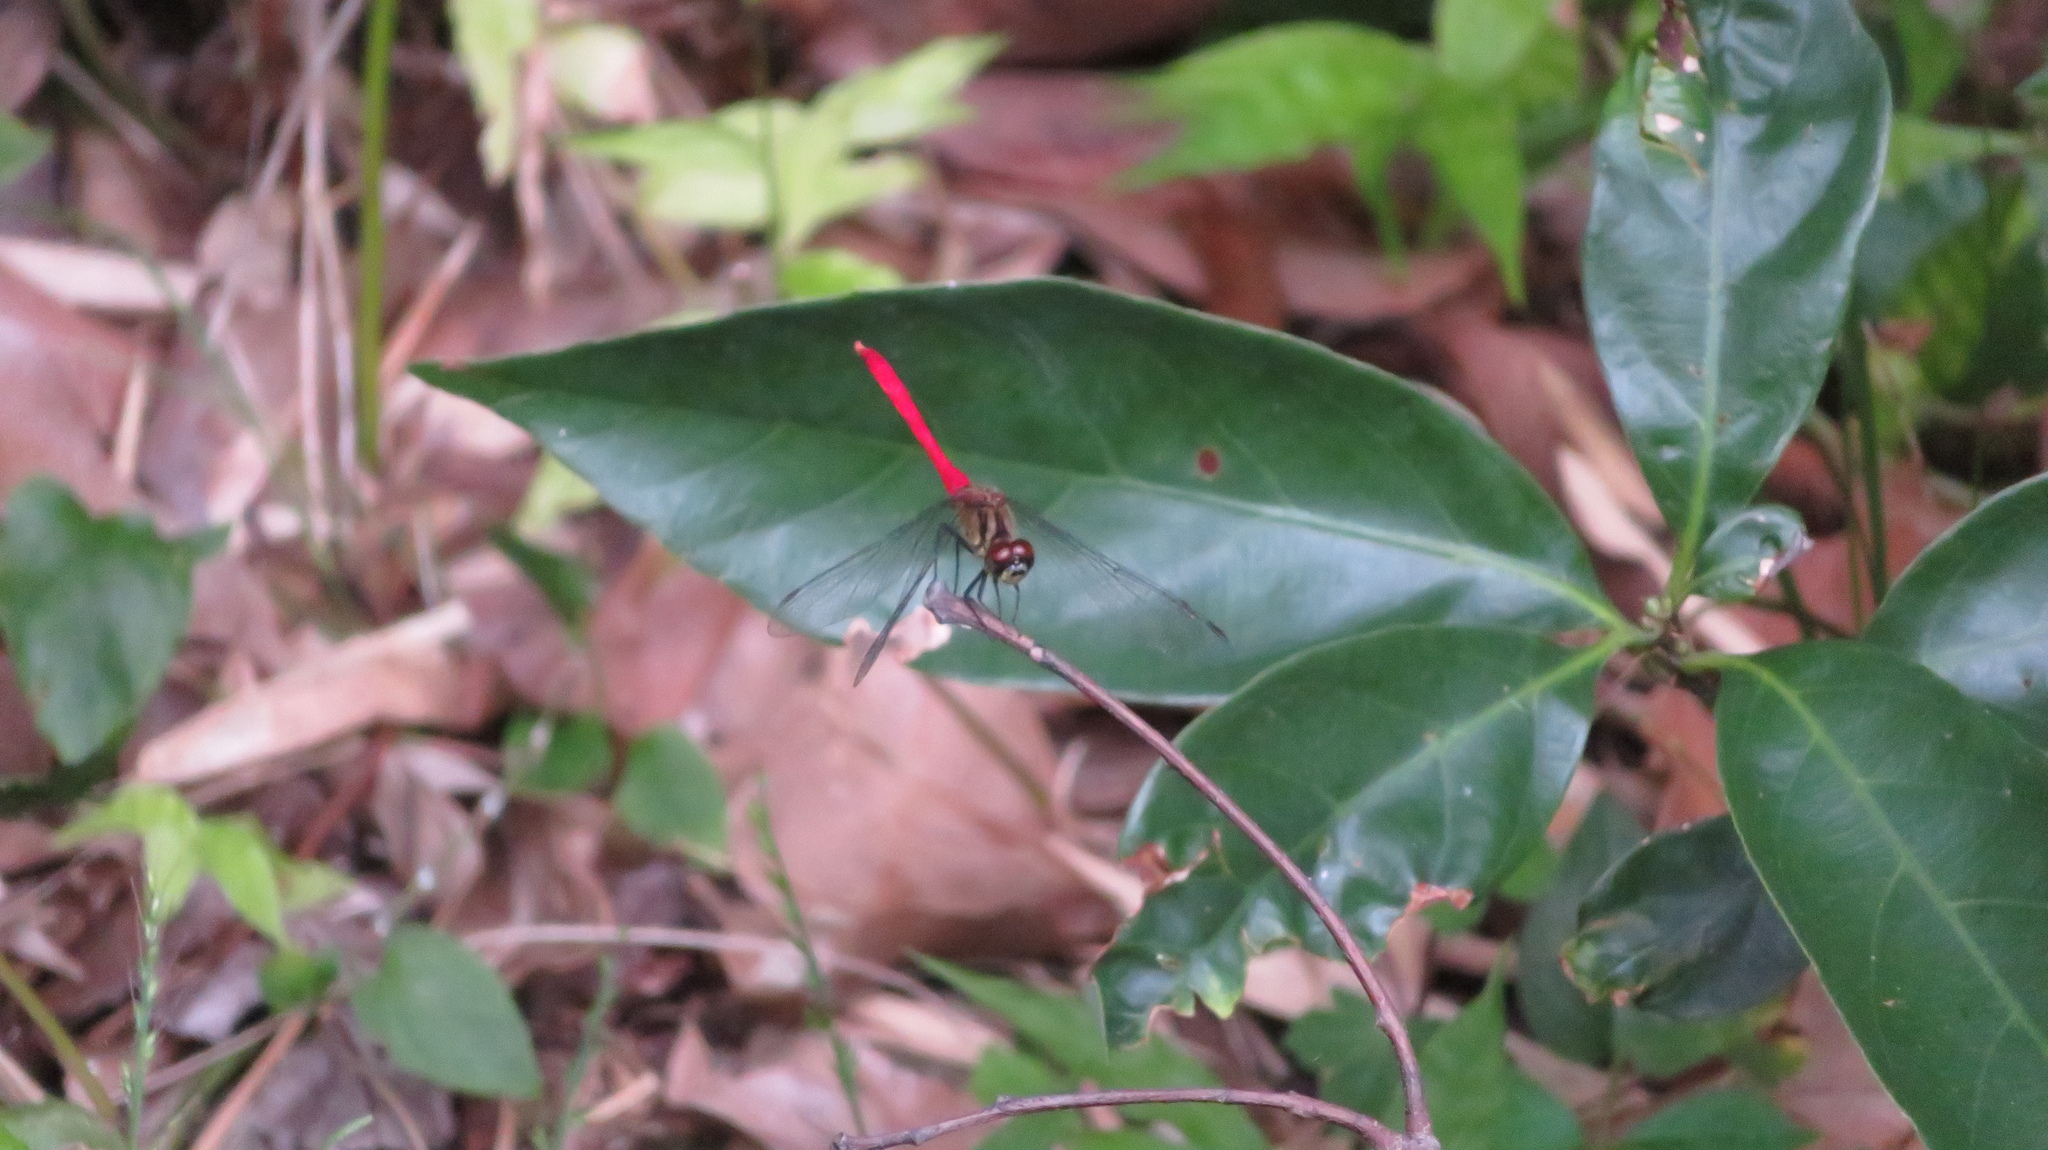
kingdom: Animalia
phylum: Arthropoda
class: Insecta
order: Odonata
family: Libellulidae
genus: Sympetrum
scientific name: Sympetrum eroticum
